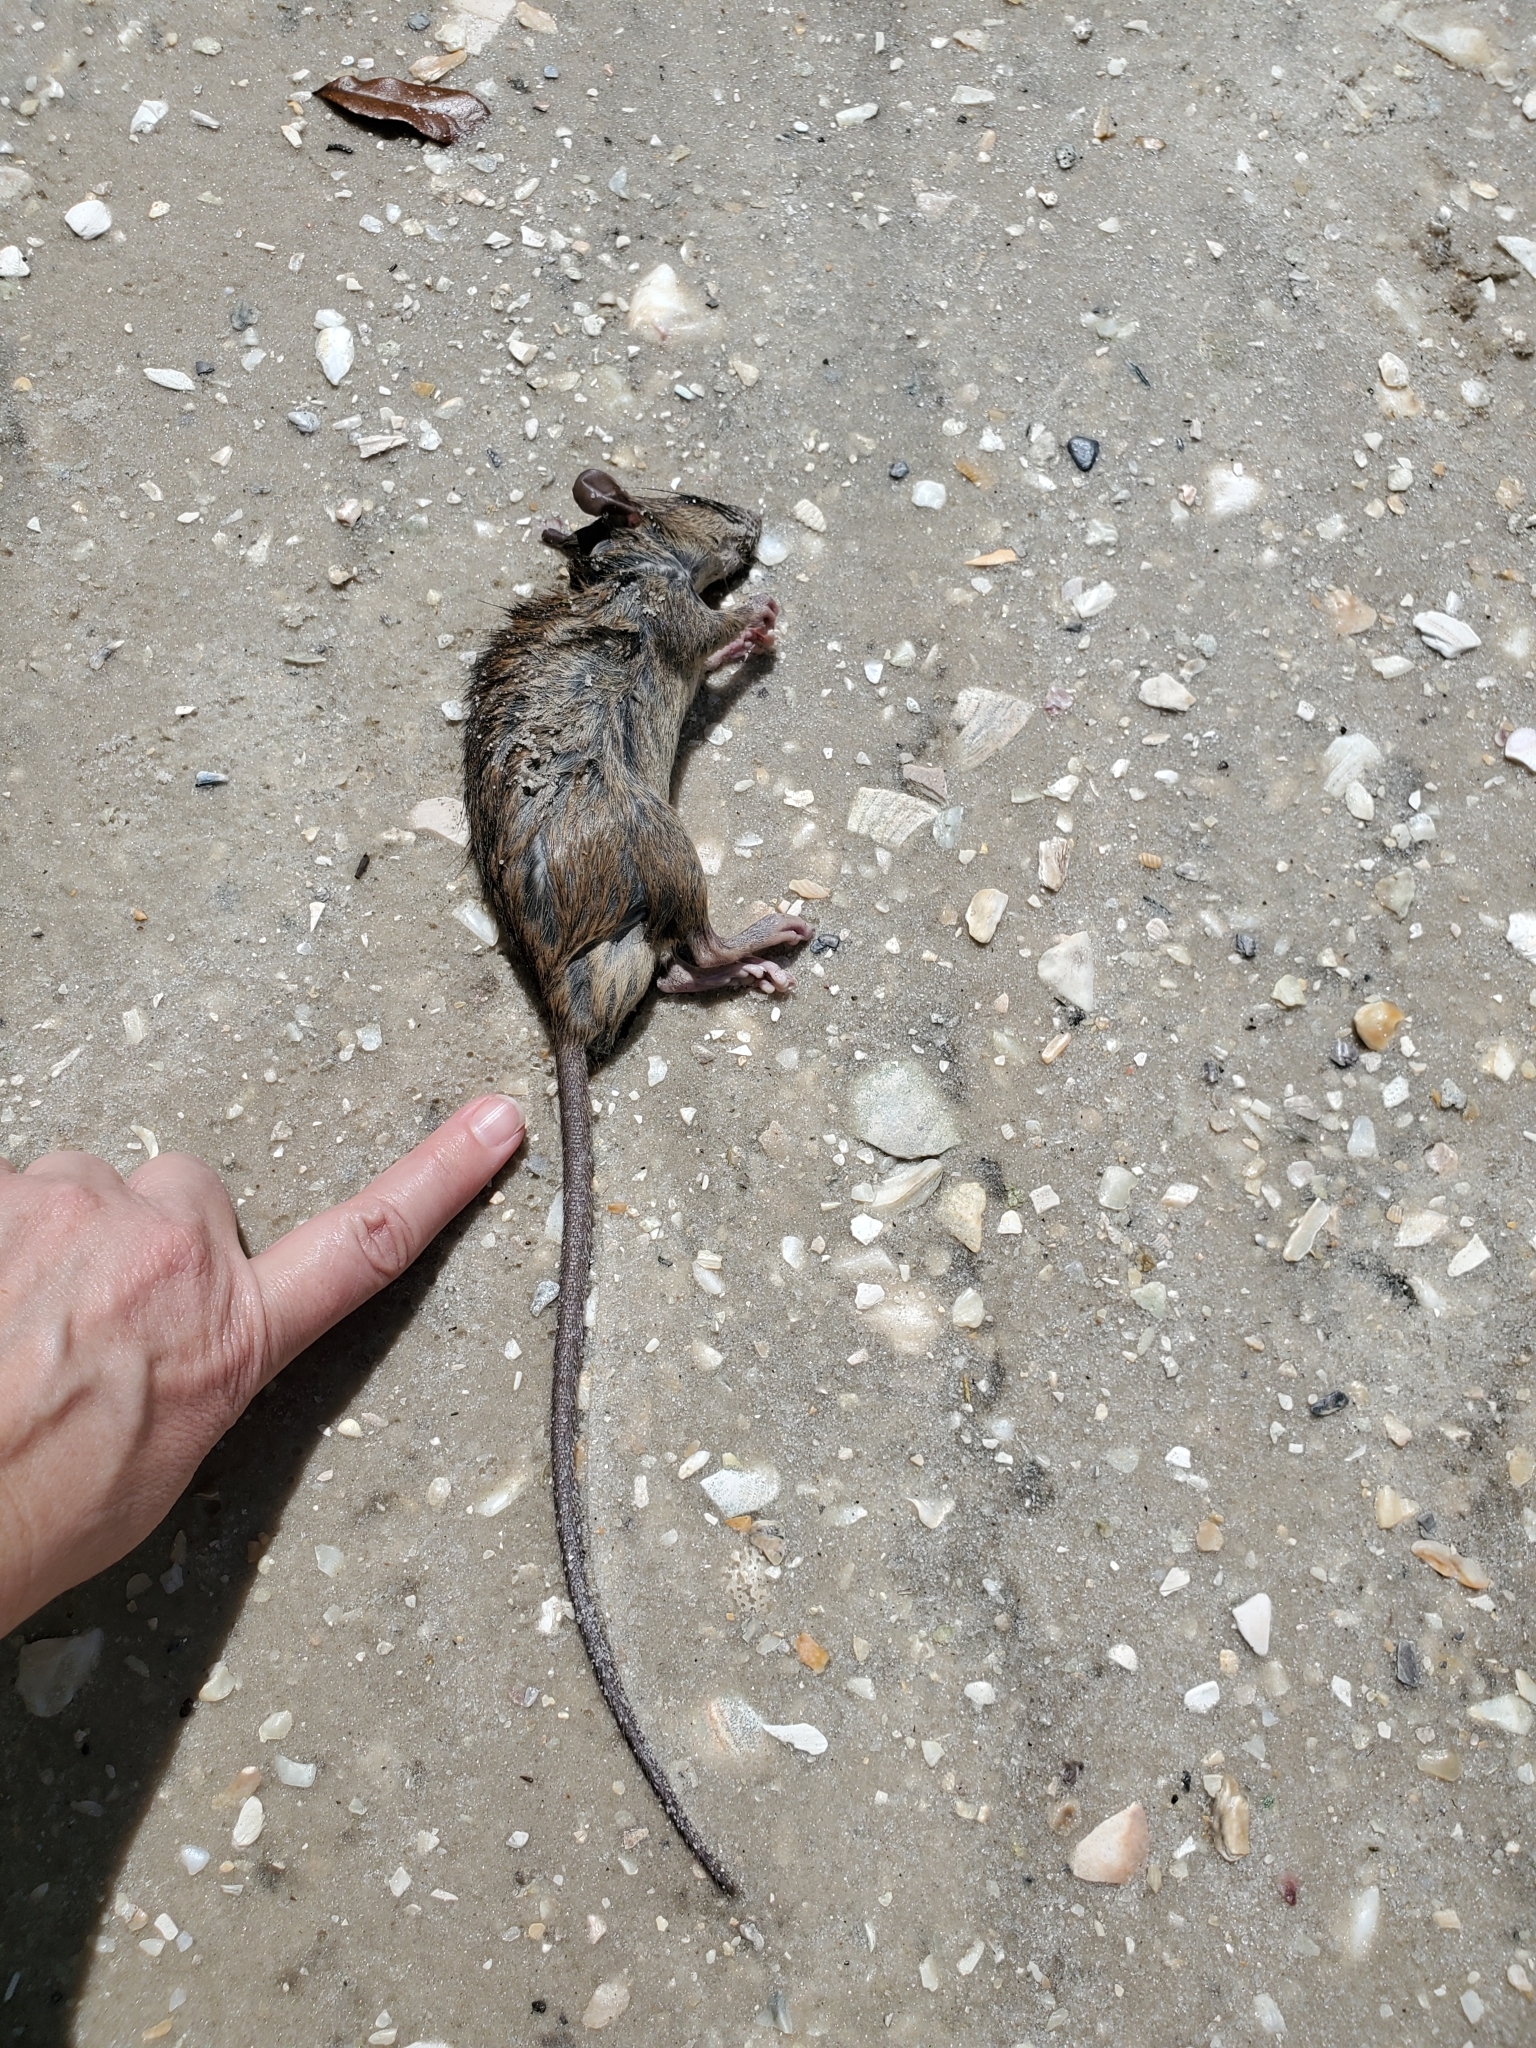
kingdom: Animalia
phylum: Chordata
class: Mammalia
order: Rodentia
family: Muridae
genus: Rattus
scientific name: Rattus rattus
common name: Black rat
